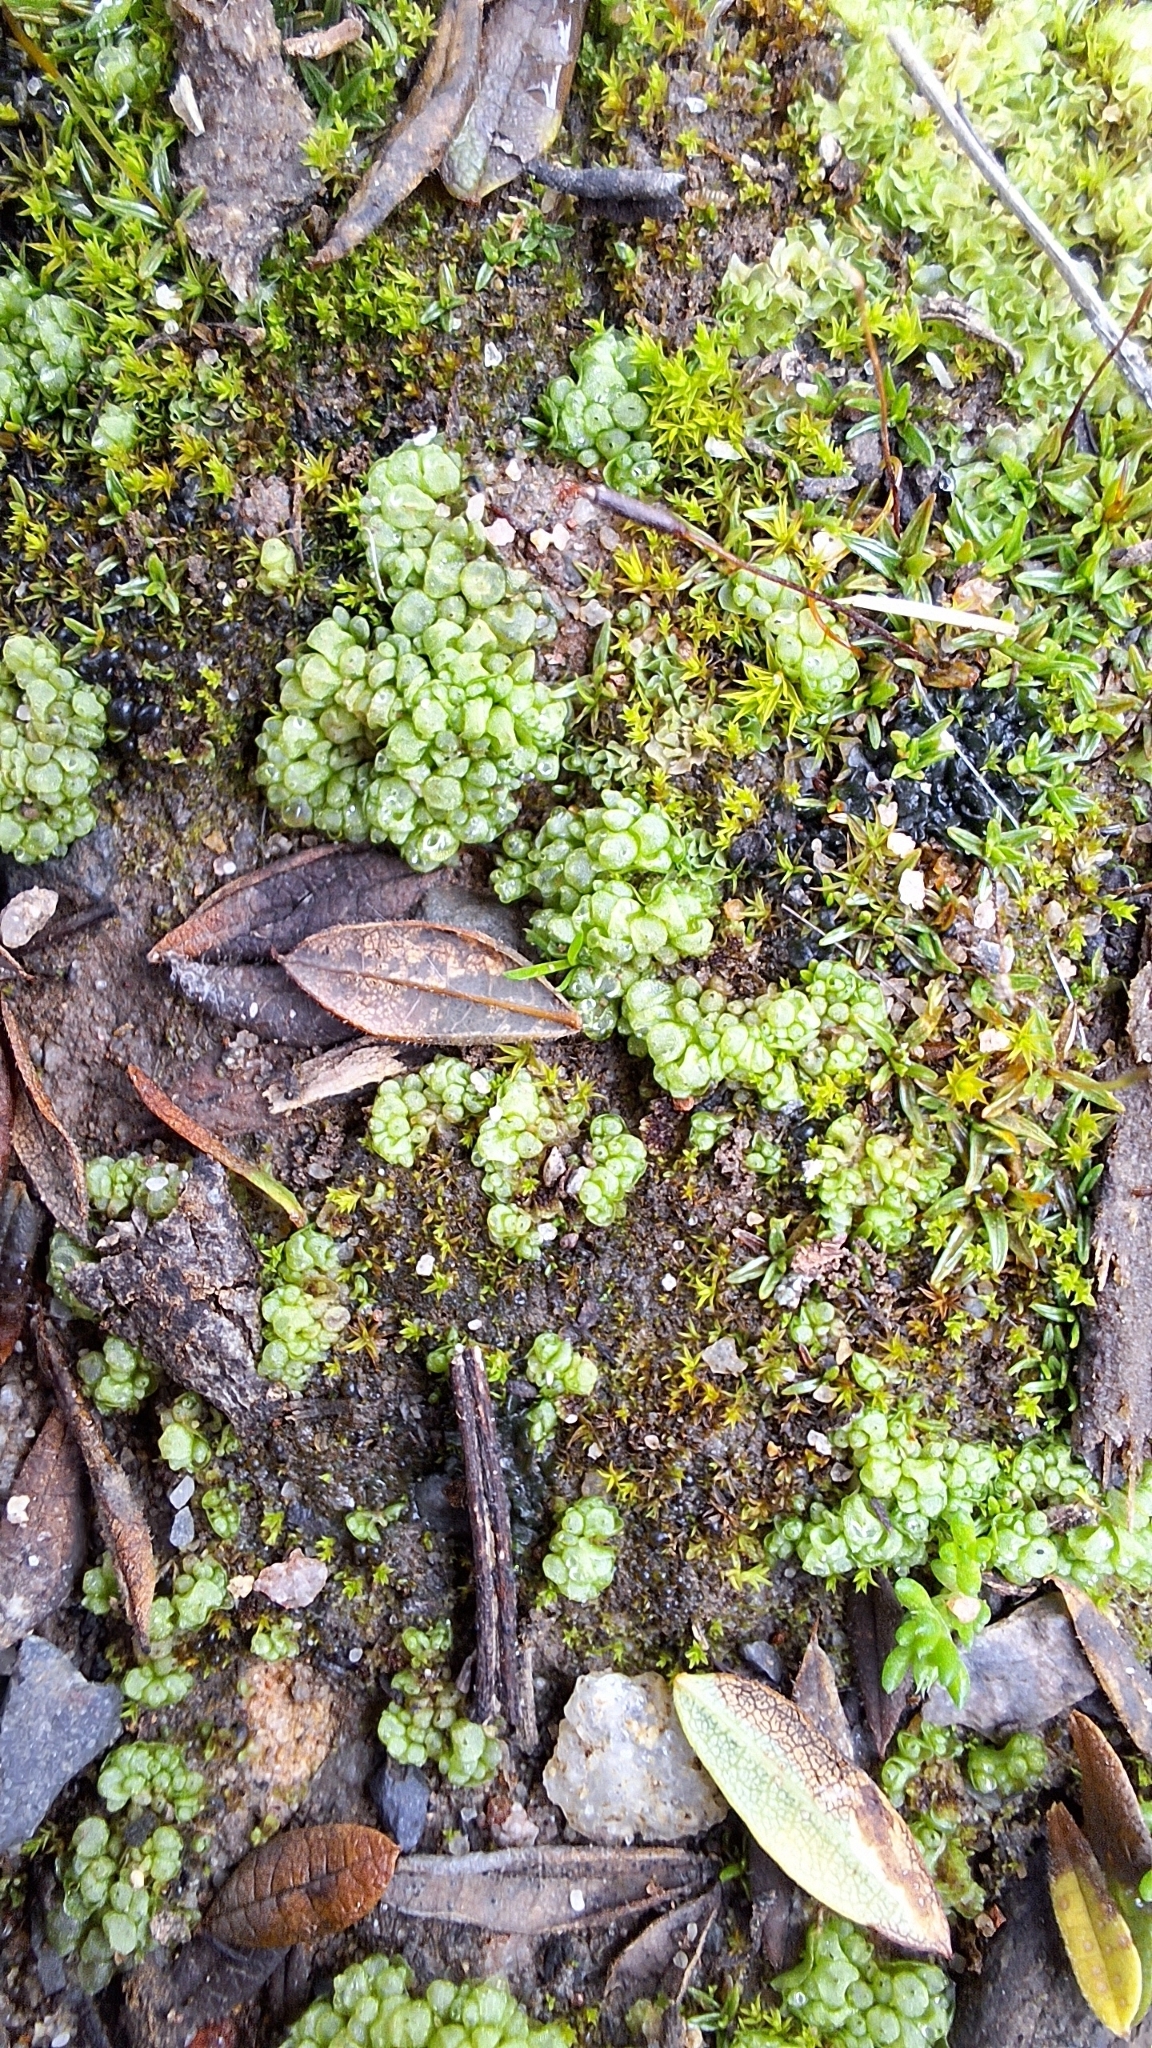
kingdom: Plantae
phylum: Marchantiophyta
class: Marchantiopsida
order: Sphaerocarpales
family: Sphaerocarpaceae
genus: Sphaerocarpos
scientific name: Sphaerocarpos texanus
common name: Texas balloonwort
